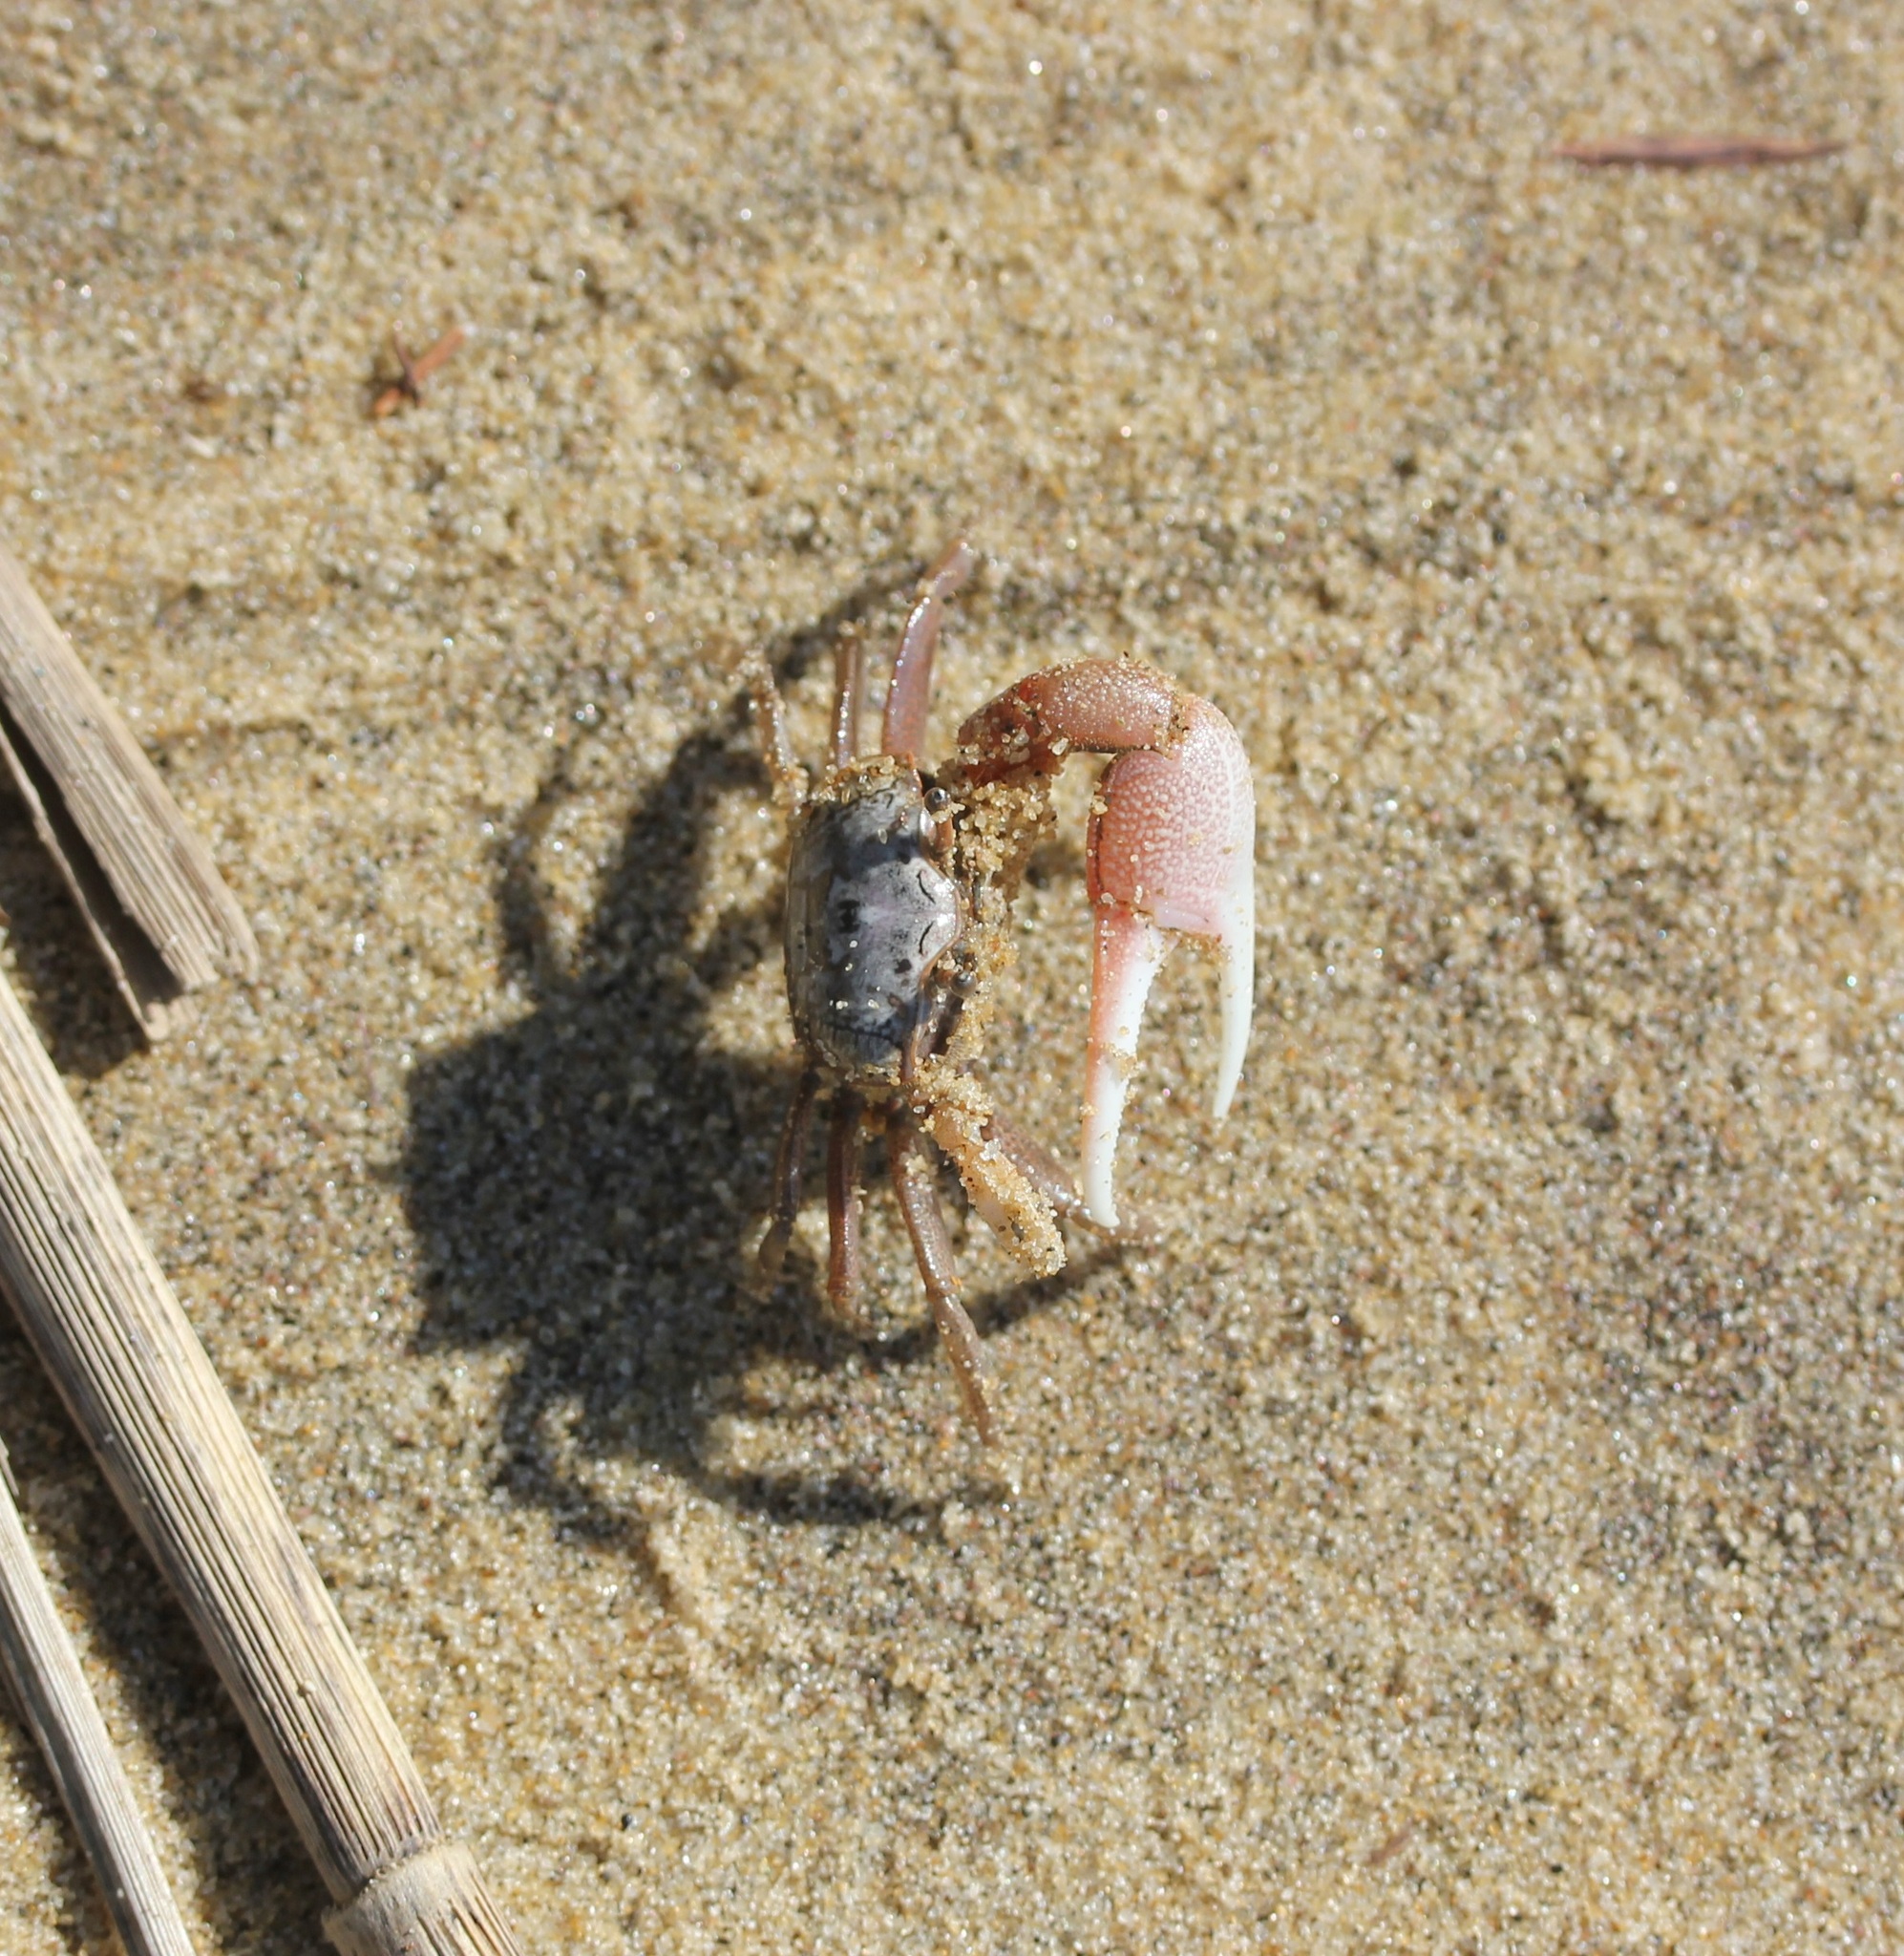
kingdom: Animalia
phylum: Arthropoda
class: Malacostraca
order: Decapoda
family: Ocypodidae
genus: Leptuca
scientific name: Leptuca pugilator
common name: Atlantic sand fiddler crab
